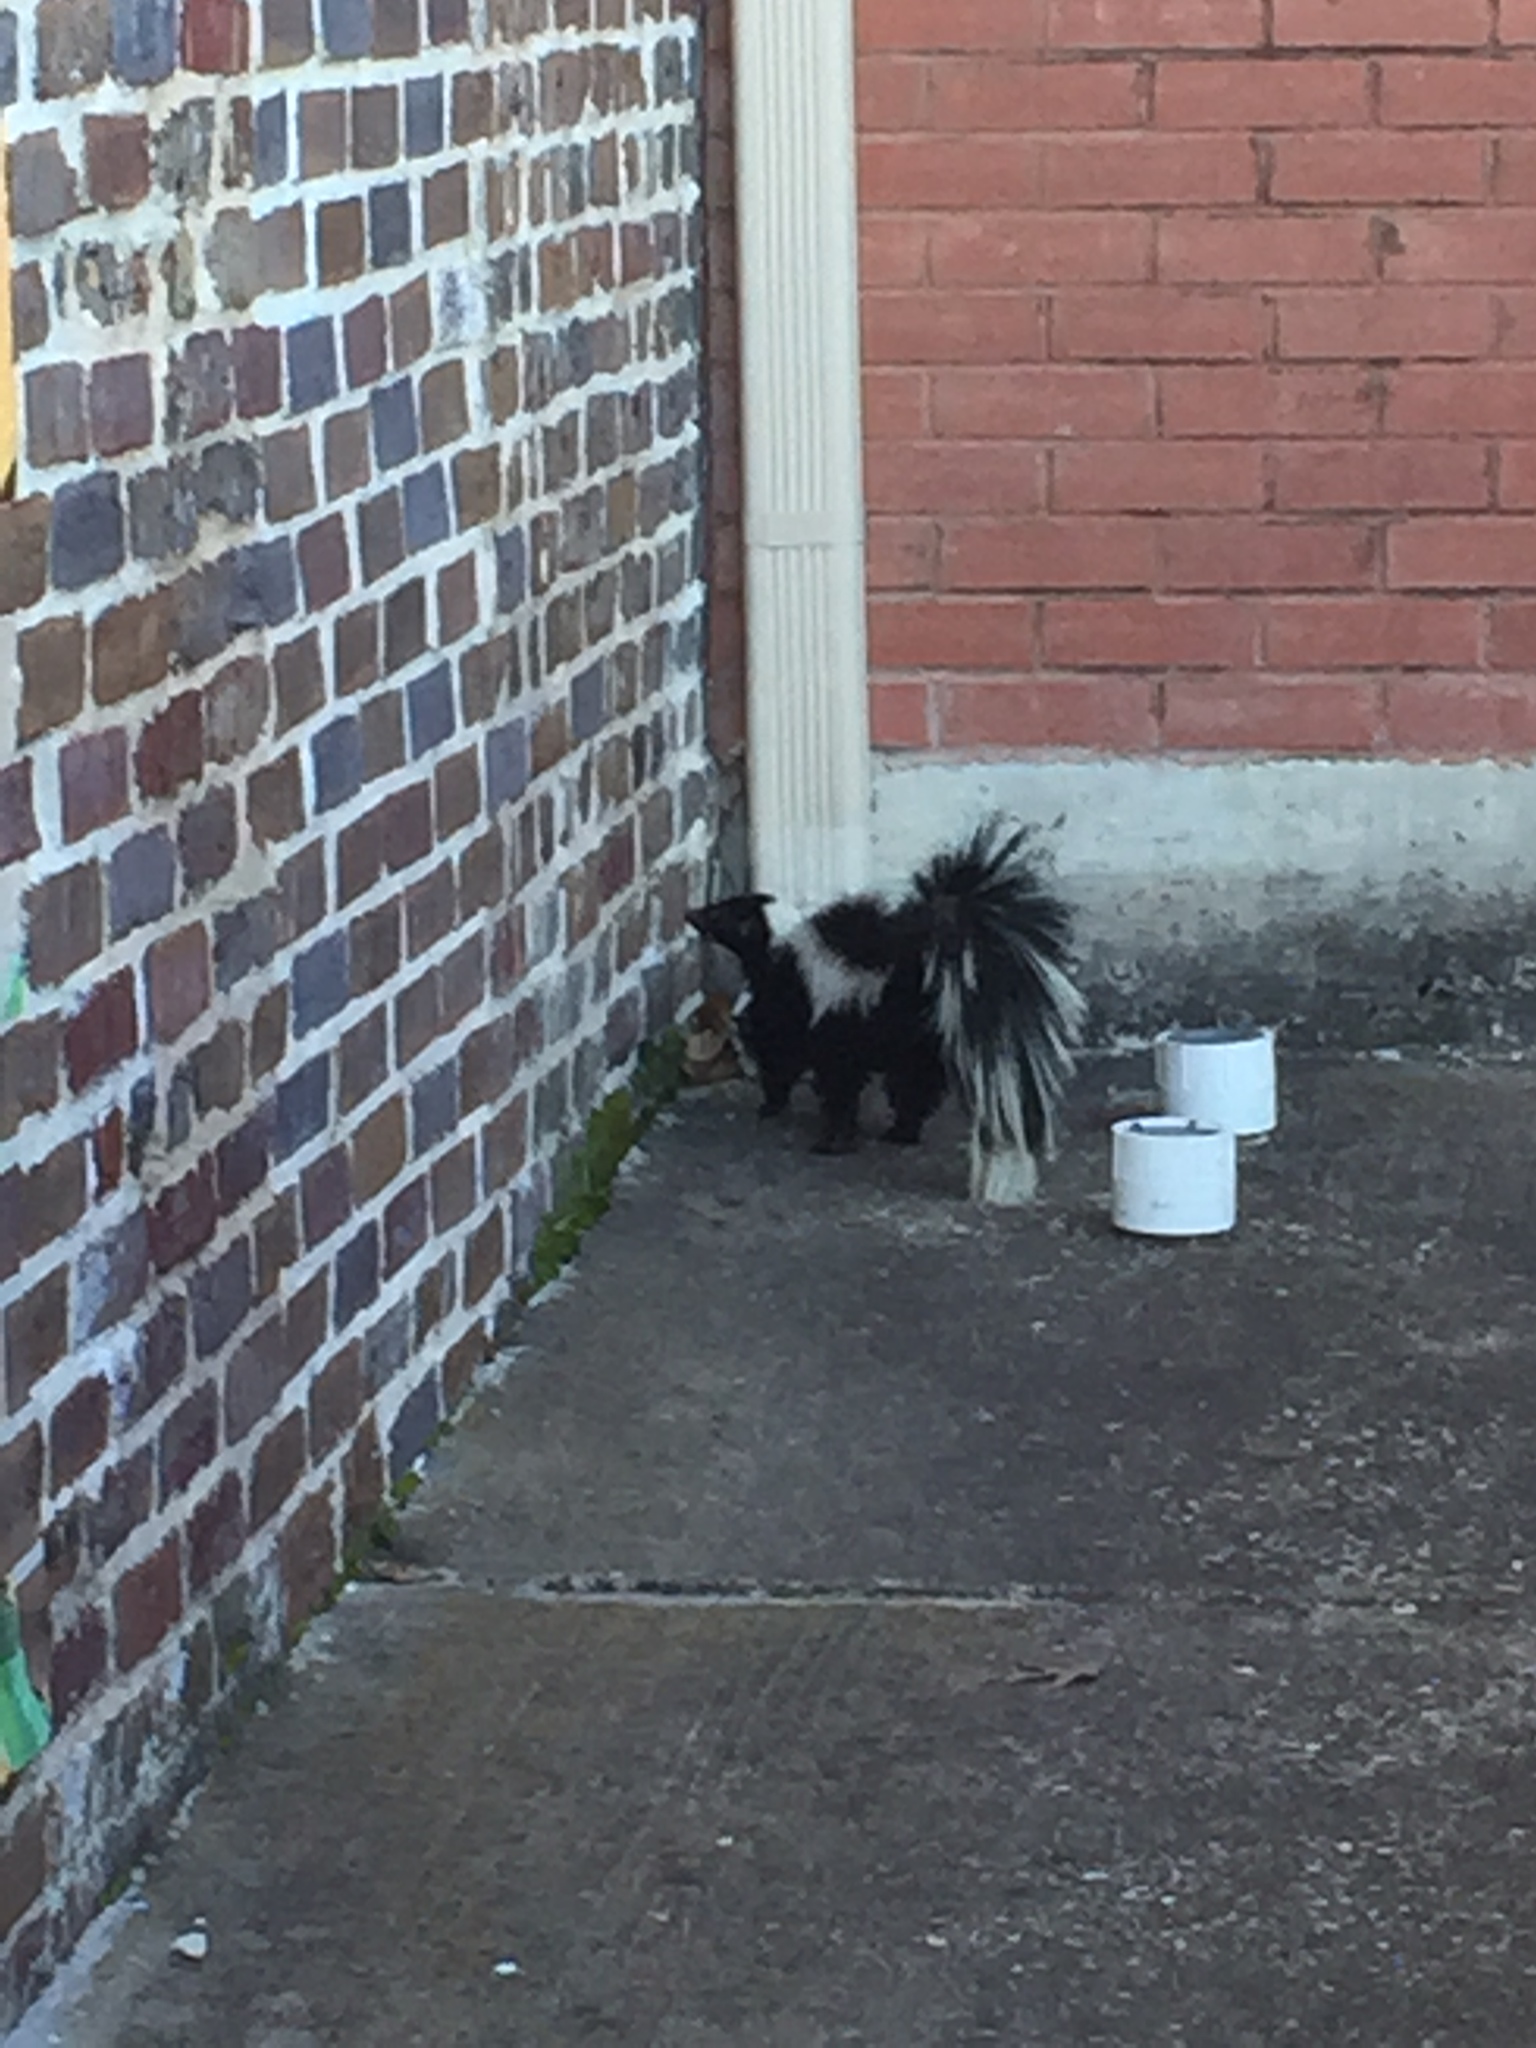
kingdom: Animalia
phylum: Chordata
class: Mammalia
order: Carnivora
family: Mephitidae
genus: Mephitis
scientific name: Mephitis mephitis
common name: Striped skunk
